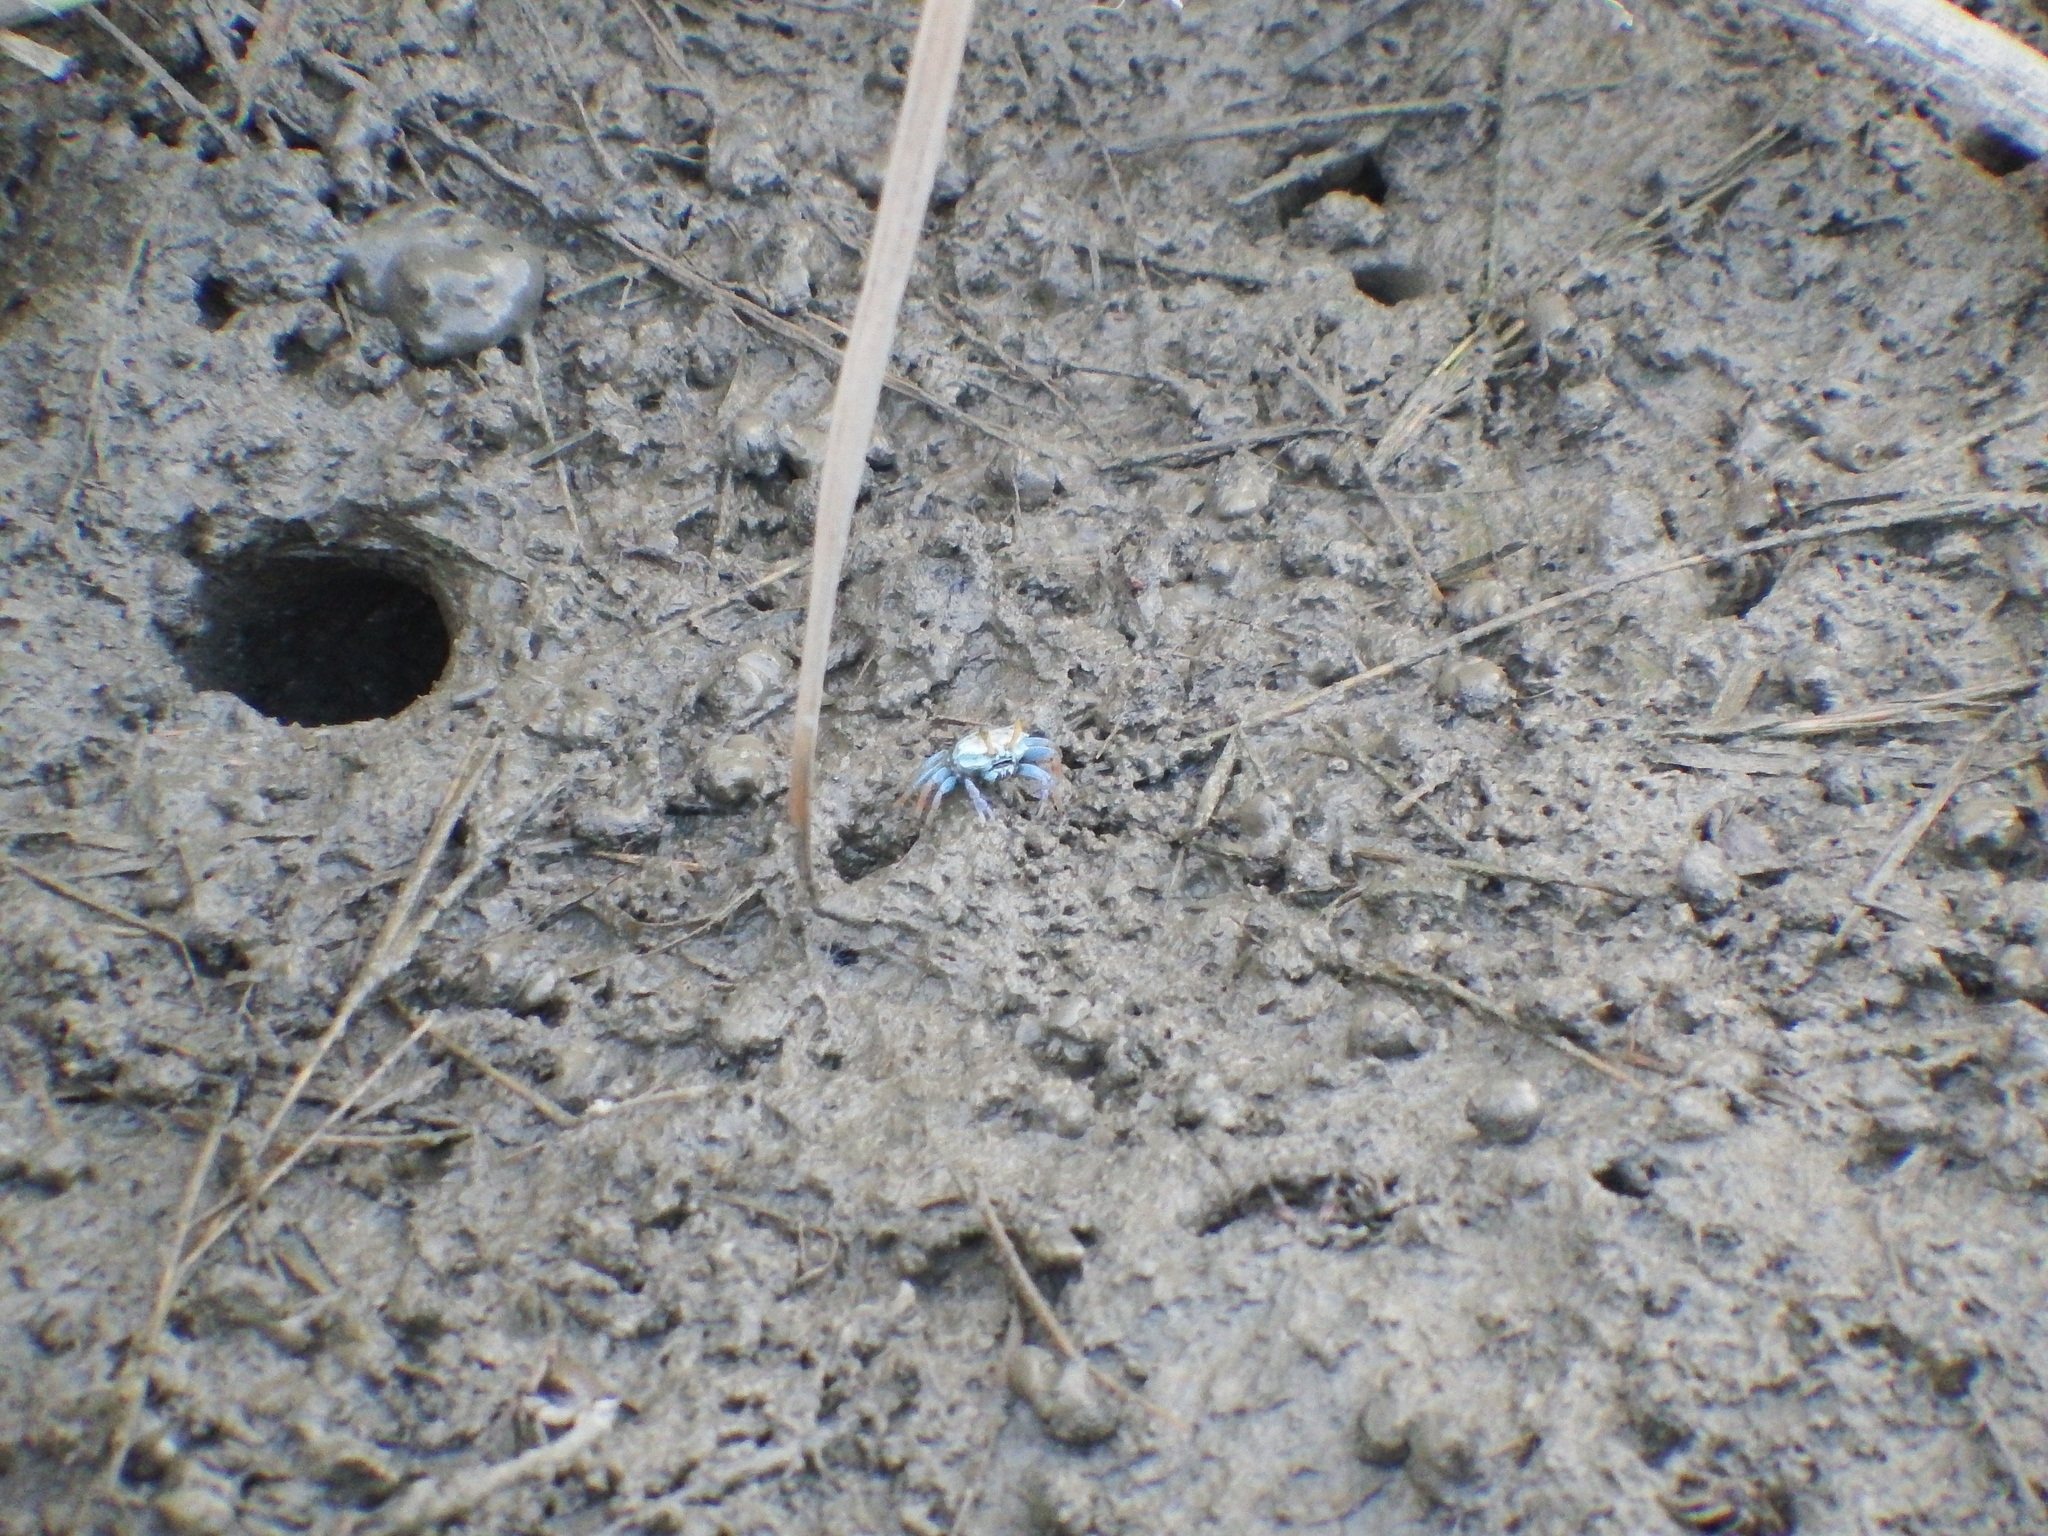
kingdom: Animalia
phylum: Arthropoda
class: Malacostraca
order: Decapoda
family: Ocypodidae
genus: Tubuca
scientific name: Tubuca arcuata
